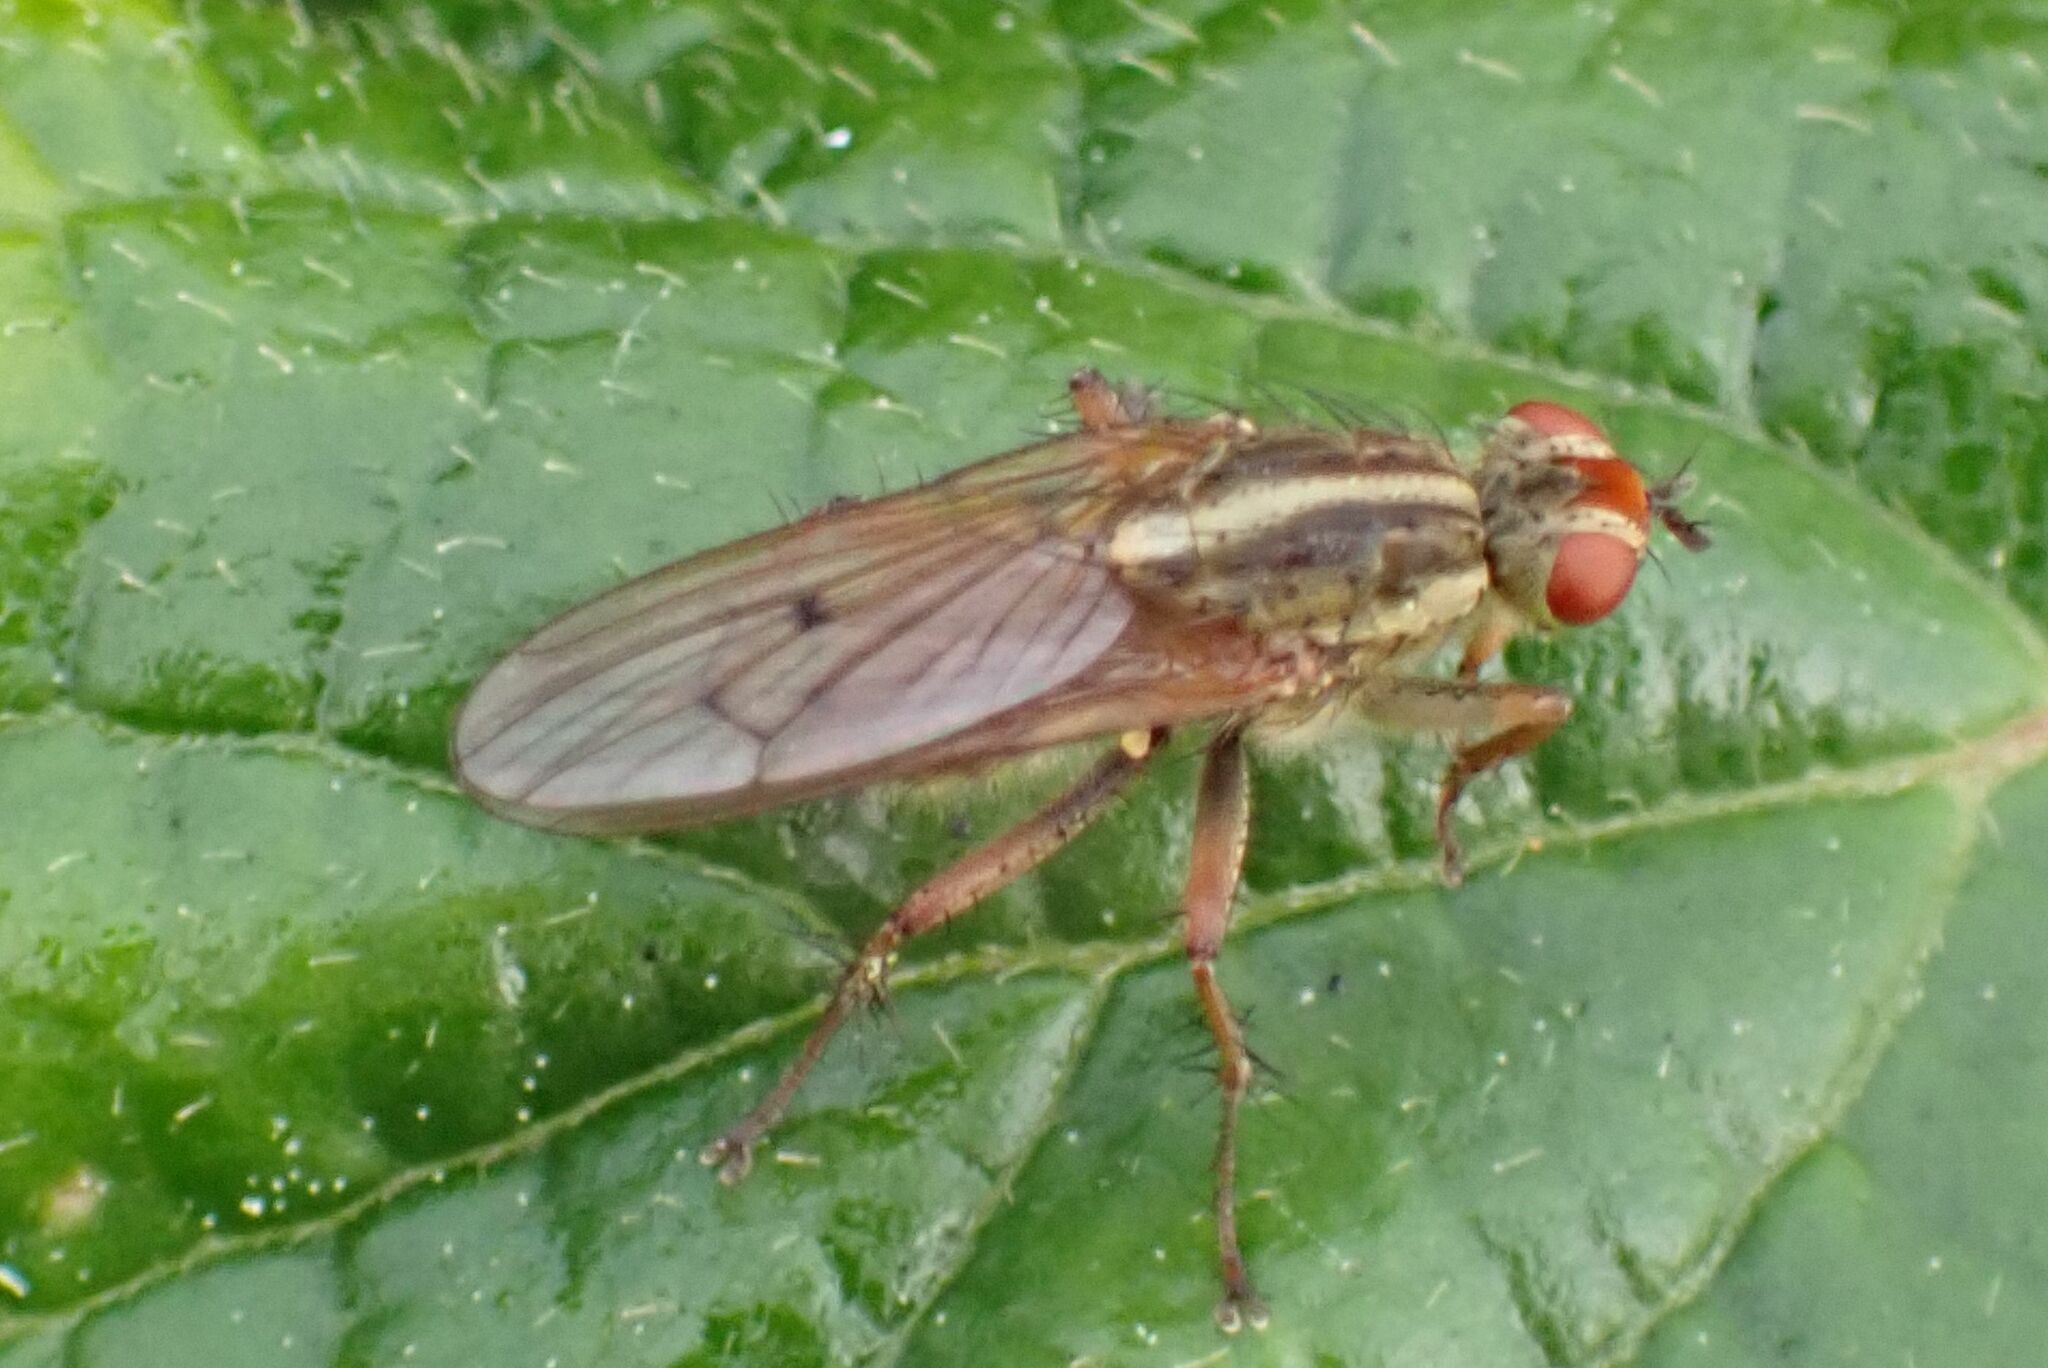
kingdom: Animalia
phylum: Arthropoda
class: Insecta
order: Diptera
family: Scathophagidae
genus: Scathophaga
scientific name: Scathophaga soror
